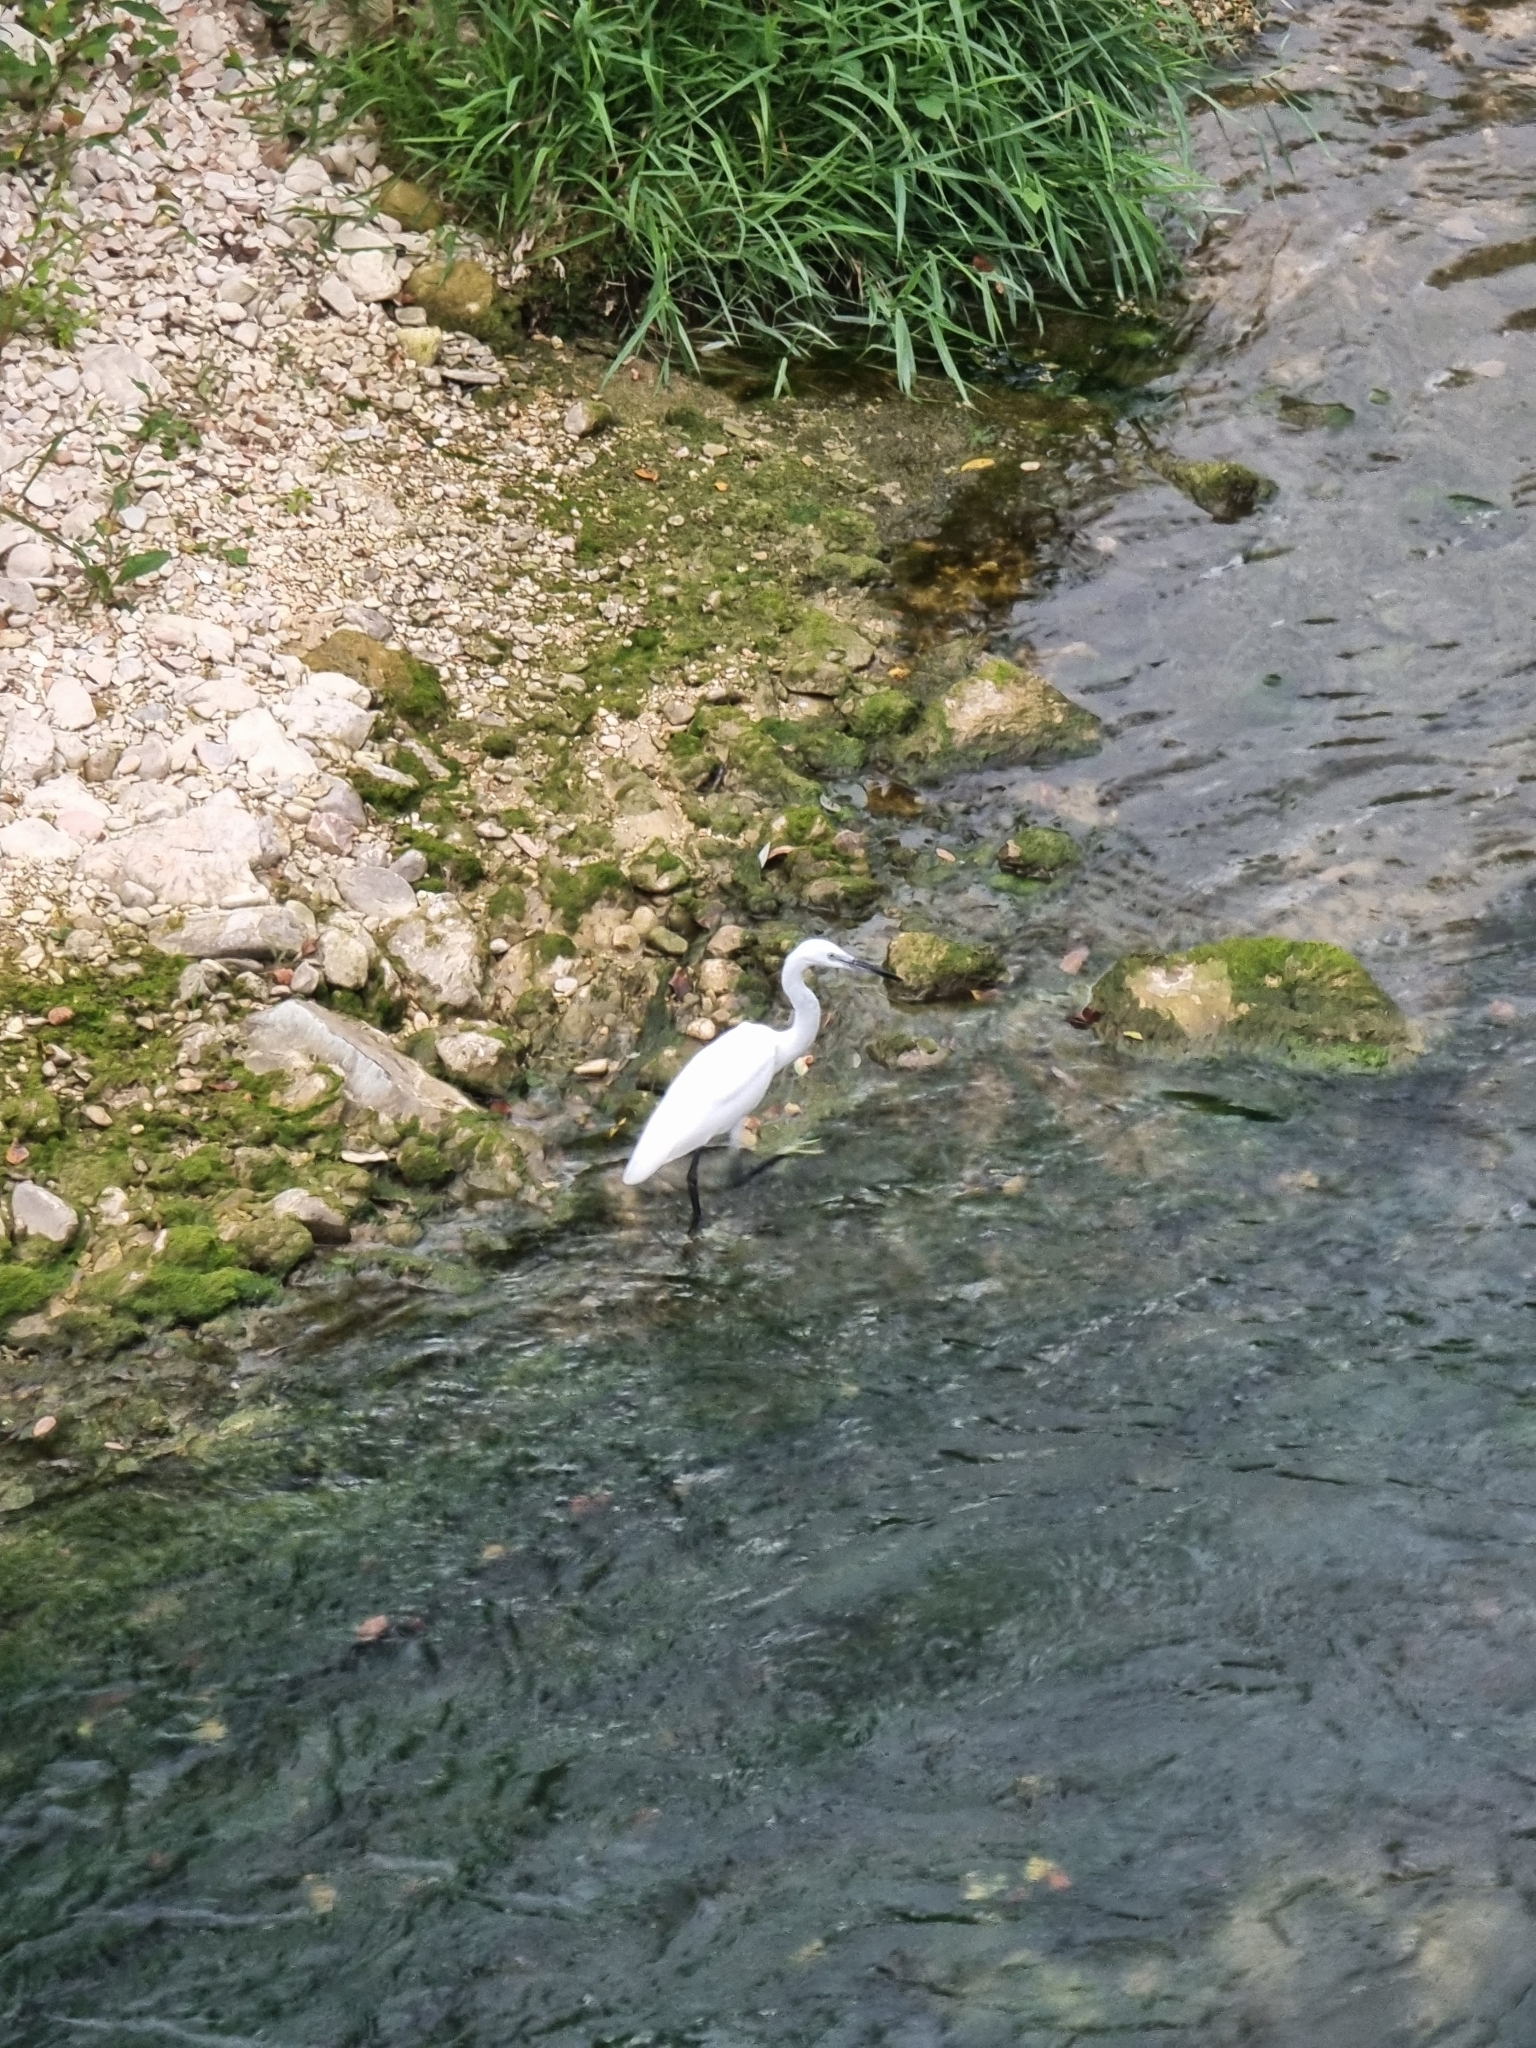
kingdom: Animalia
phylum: Chordata
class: Aves
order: Pelecaniformes
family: Ardeidae
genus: Egretta
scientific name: Egretta garzetta
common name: Little egret
